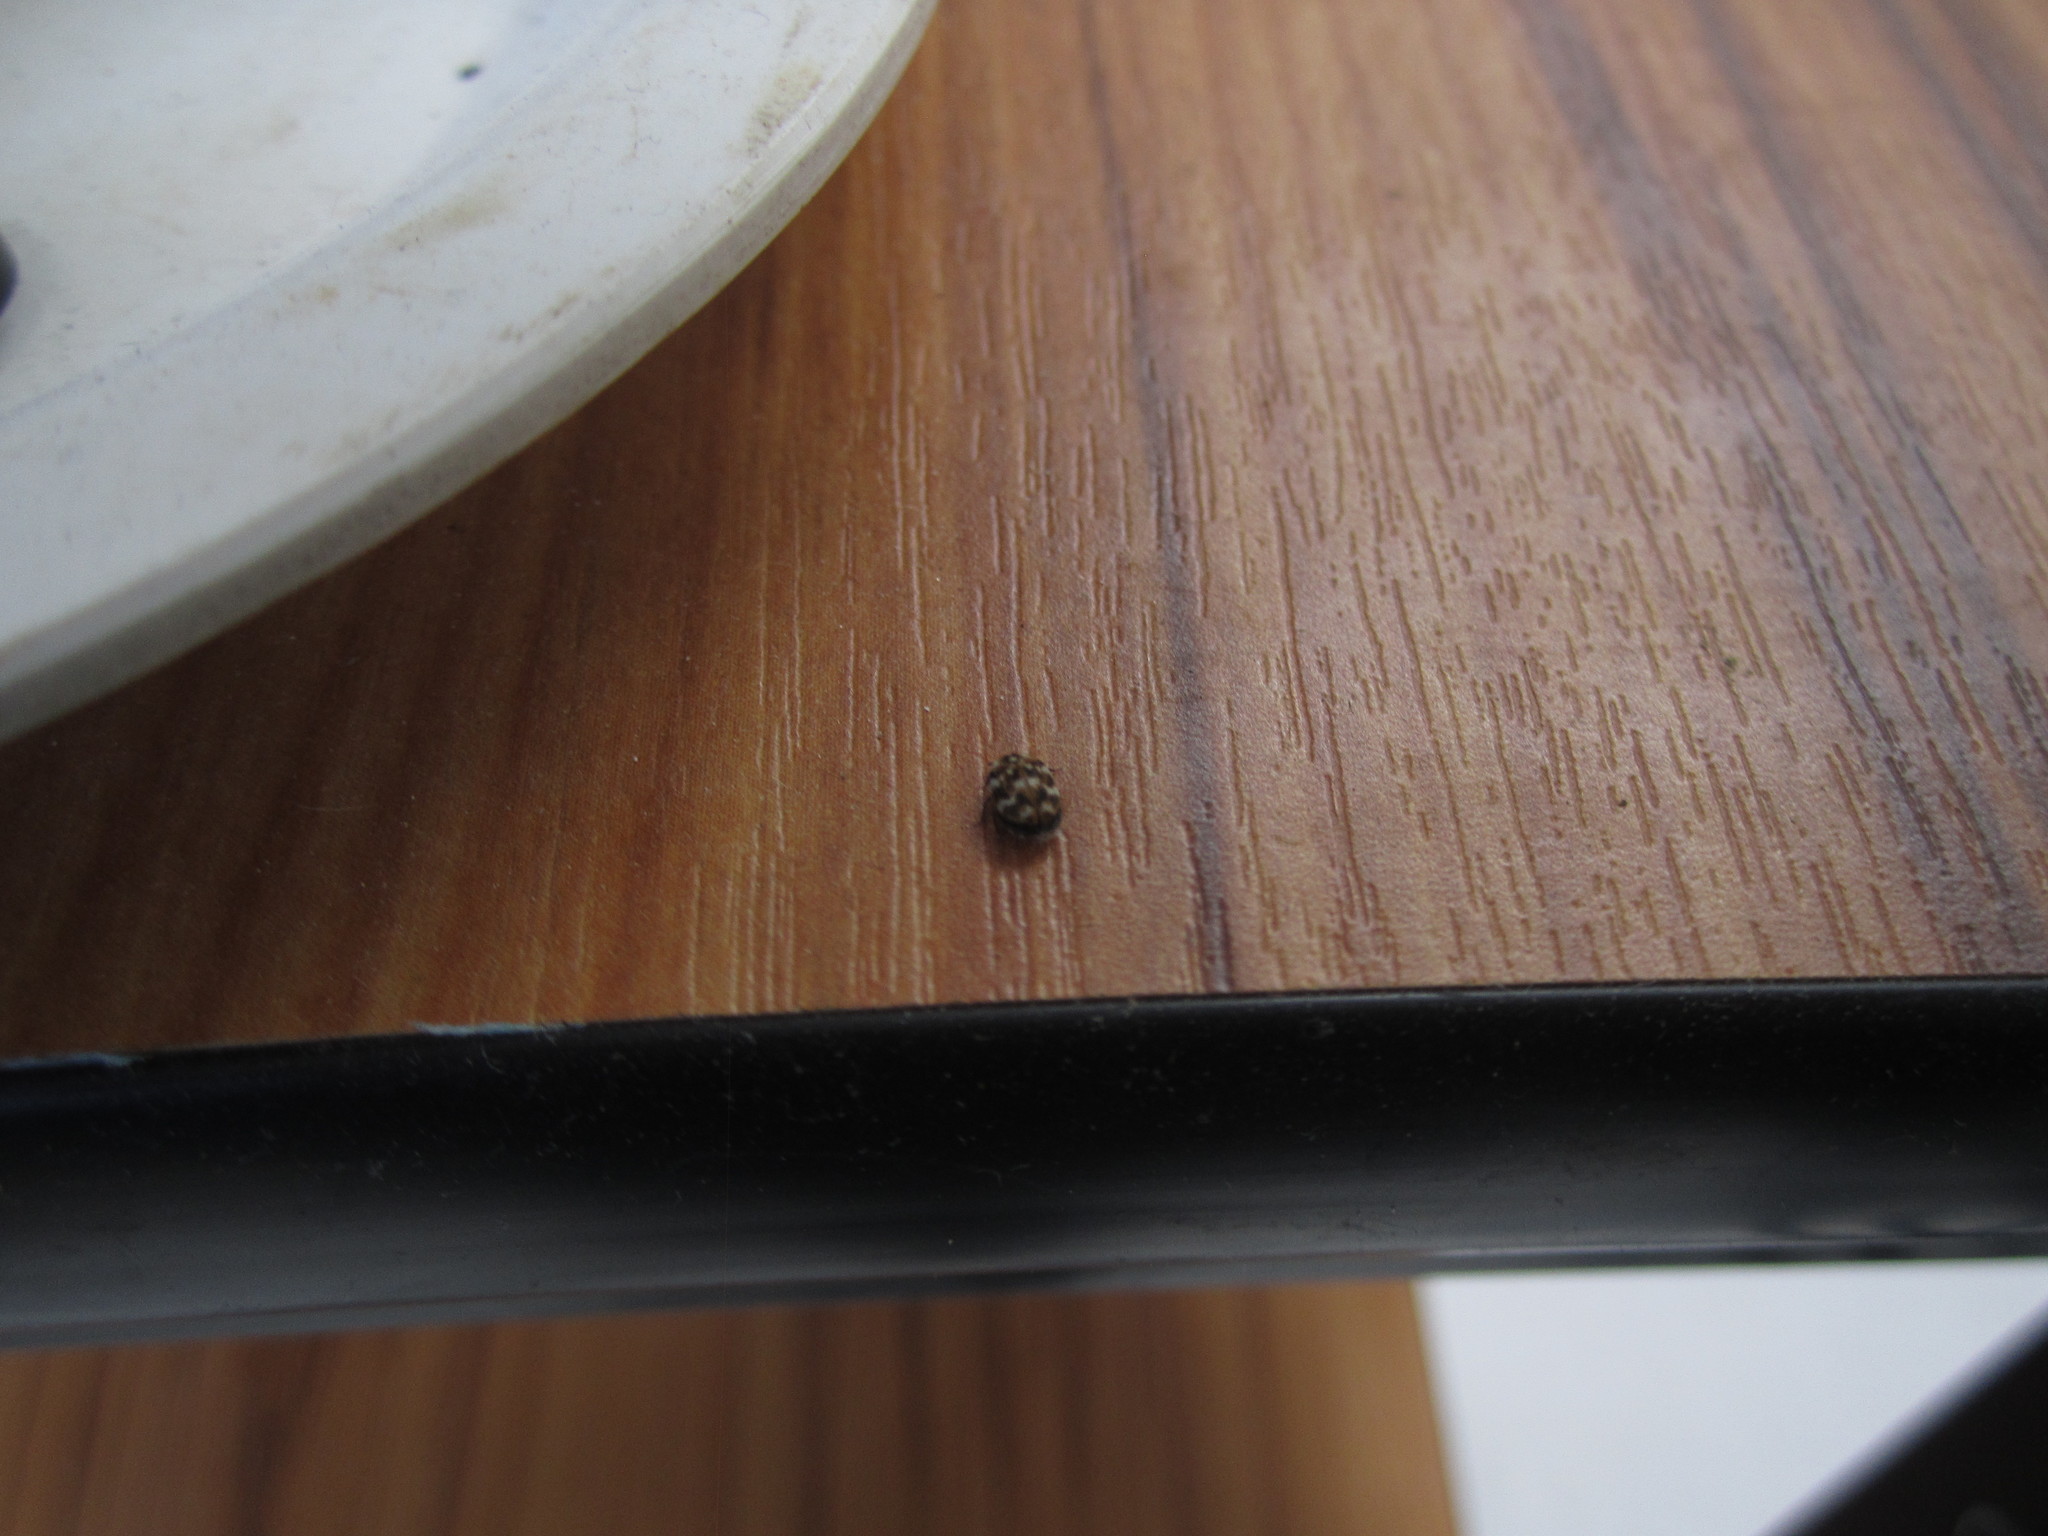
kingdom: Animalia
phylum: Arthropoda
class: Insecta
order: Coleoptera
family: Dermestidae
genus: Anthrenus
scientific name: Anthrenus verbasci
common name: Varied carpet beetle
